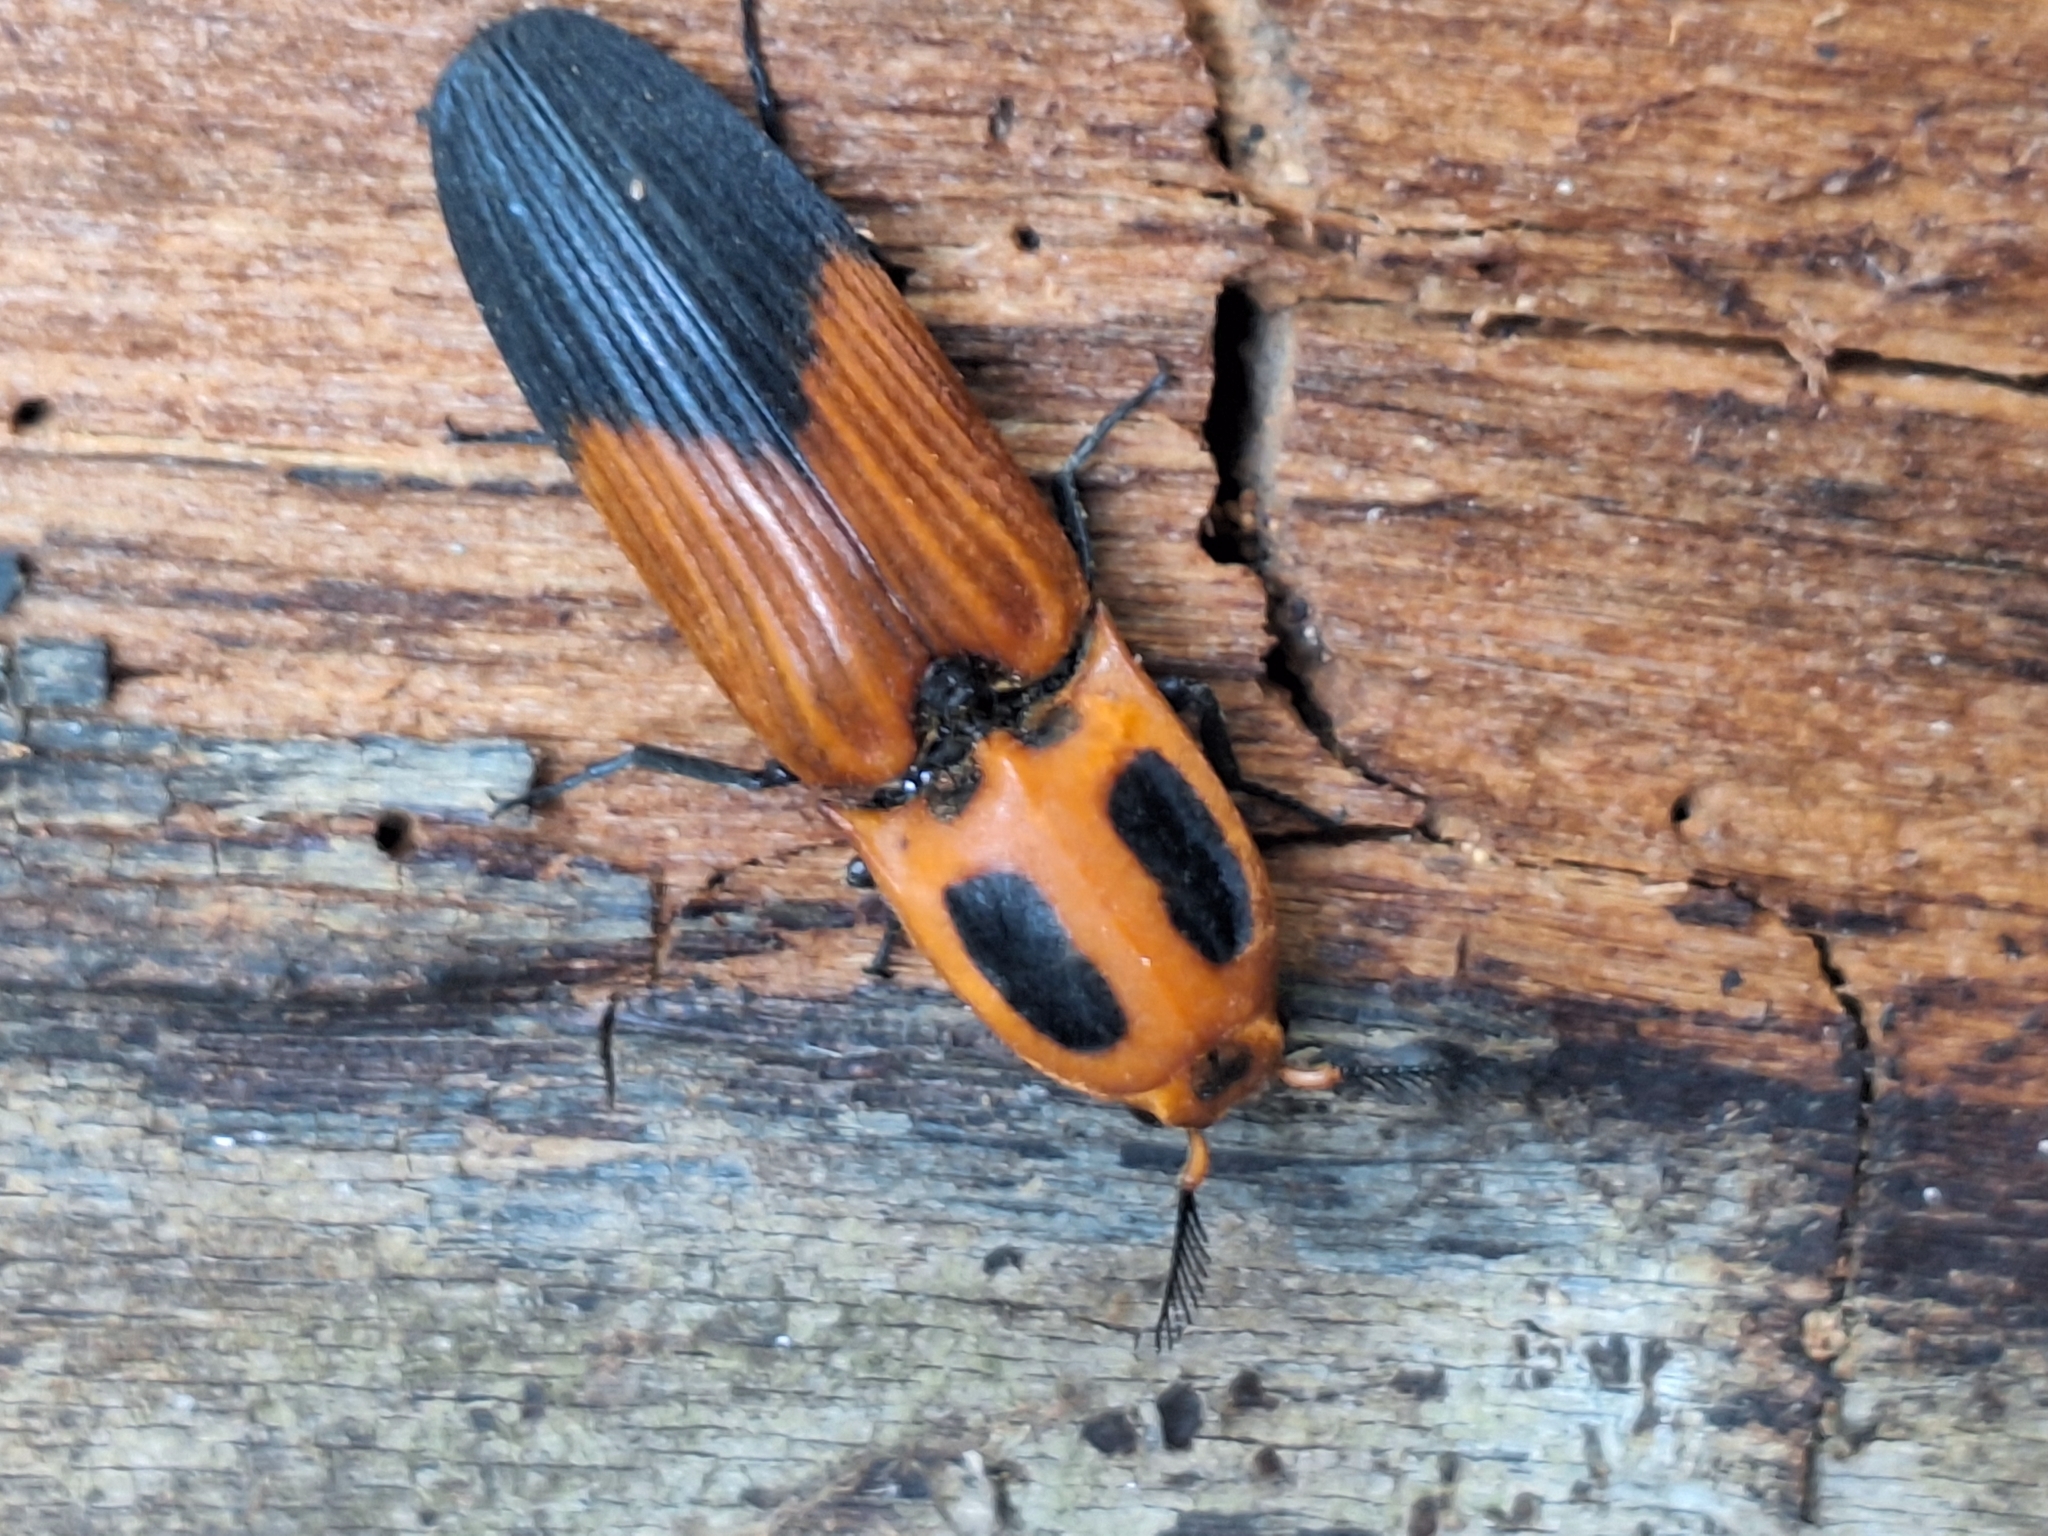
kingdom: Animalia
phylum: Arthropoda
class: Insecta
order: Coleoptera
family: Elateridae
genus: Hemirhipus
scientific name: Hemirhipus
